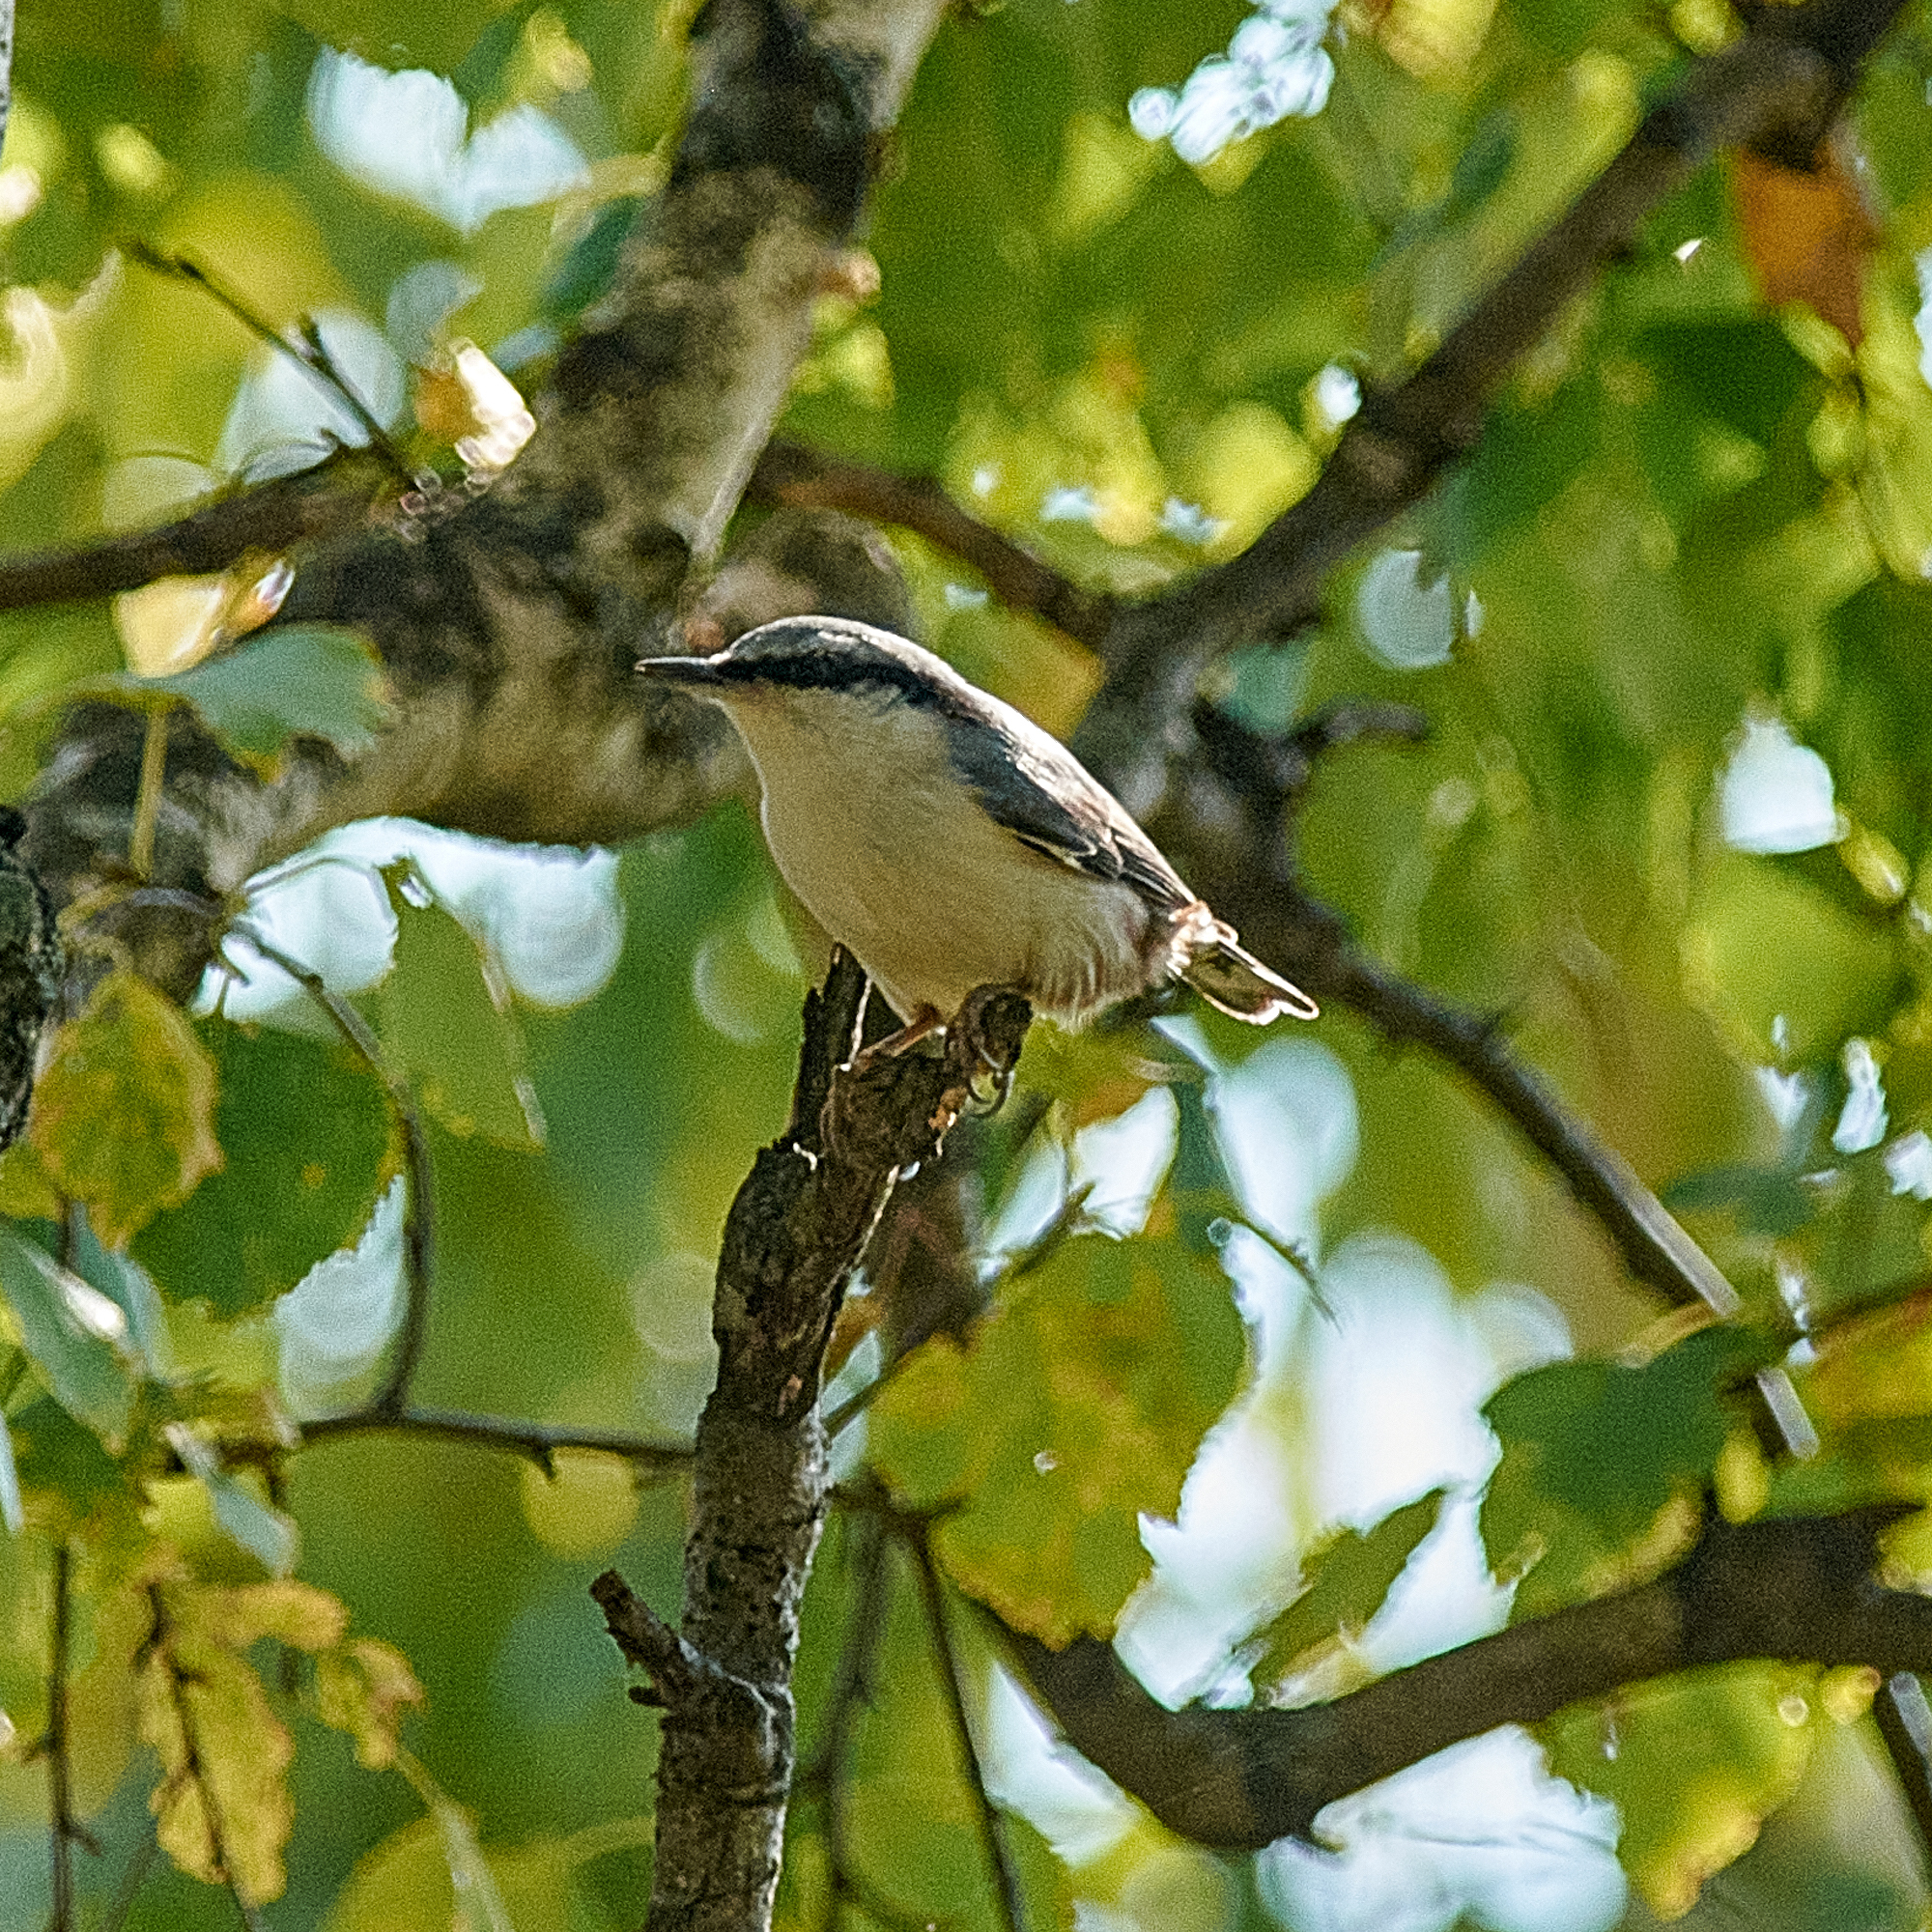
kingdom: Animalia
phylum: Chordata
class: Aves
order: Passeriformes
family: Sittidae
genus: Sitta
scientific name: Sitta europaea
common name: Eurasian nuthatch
